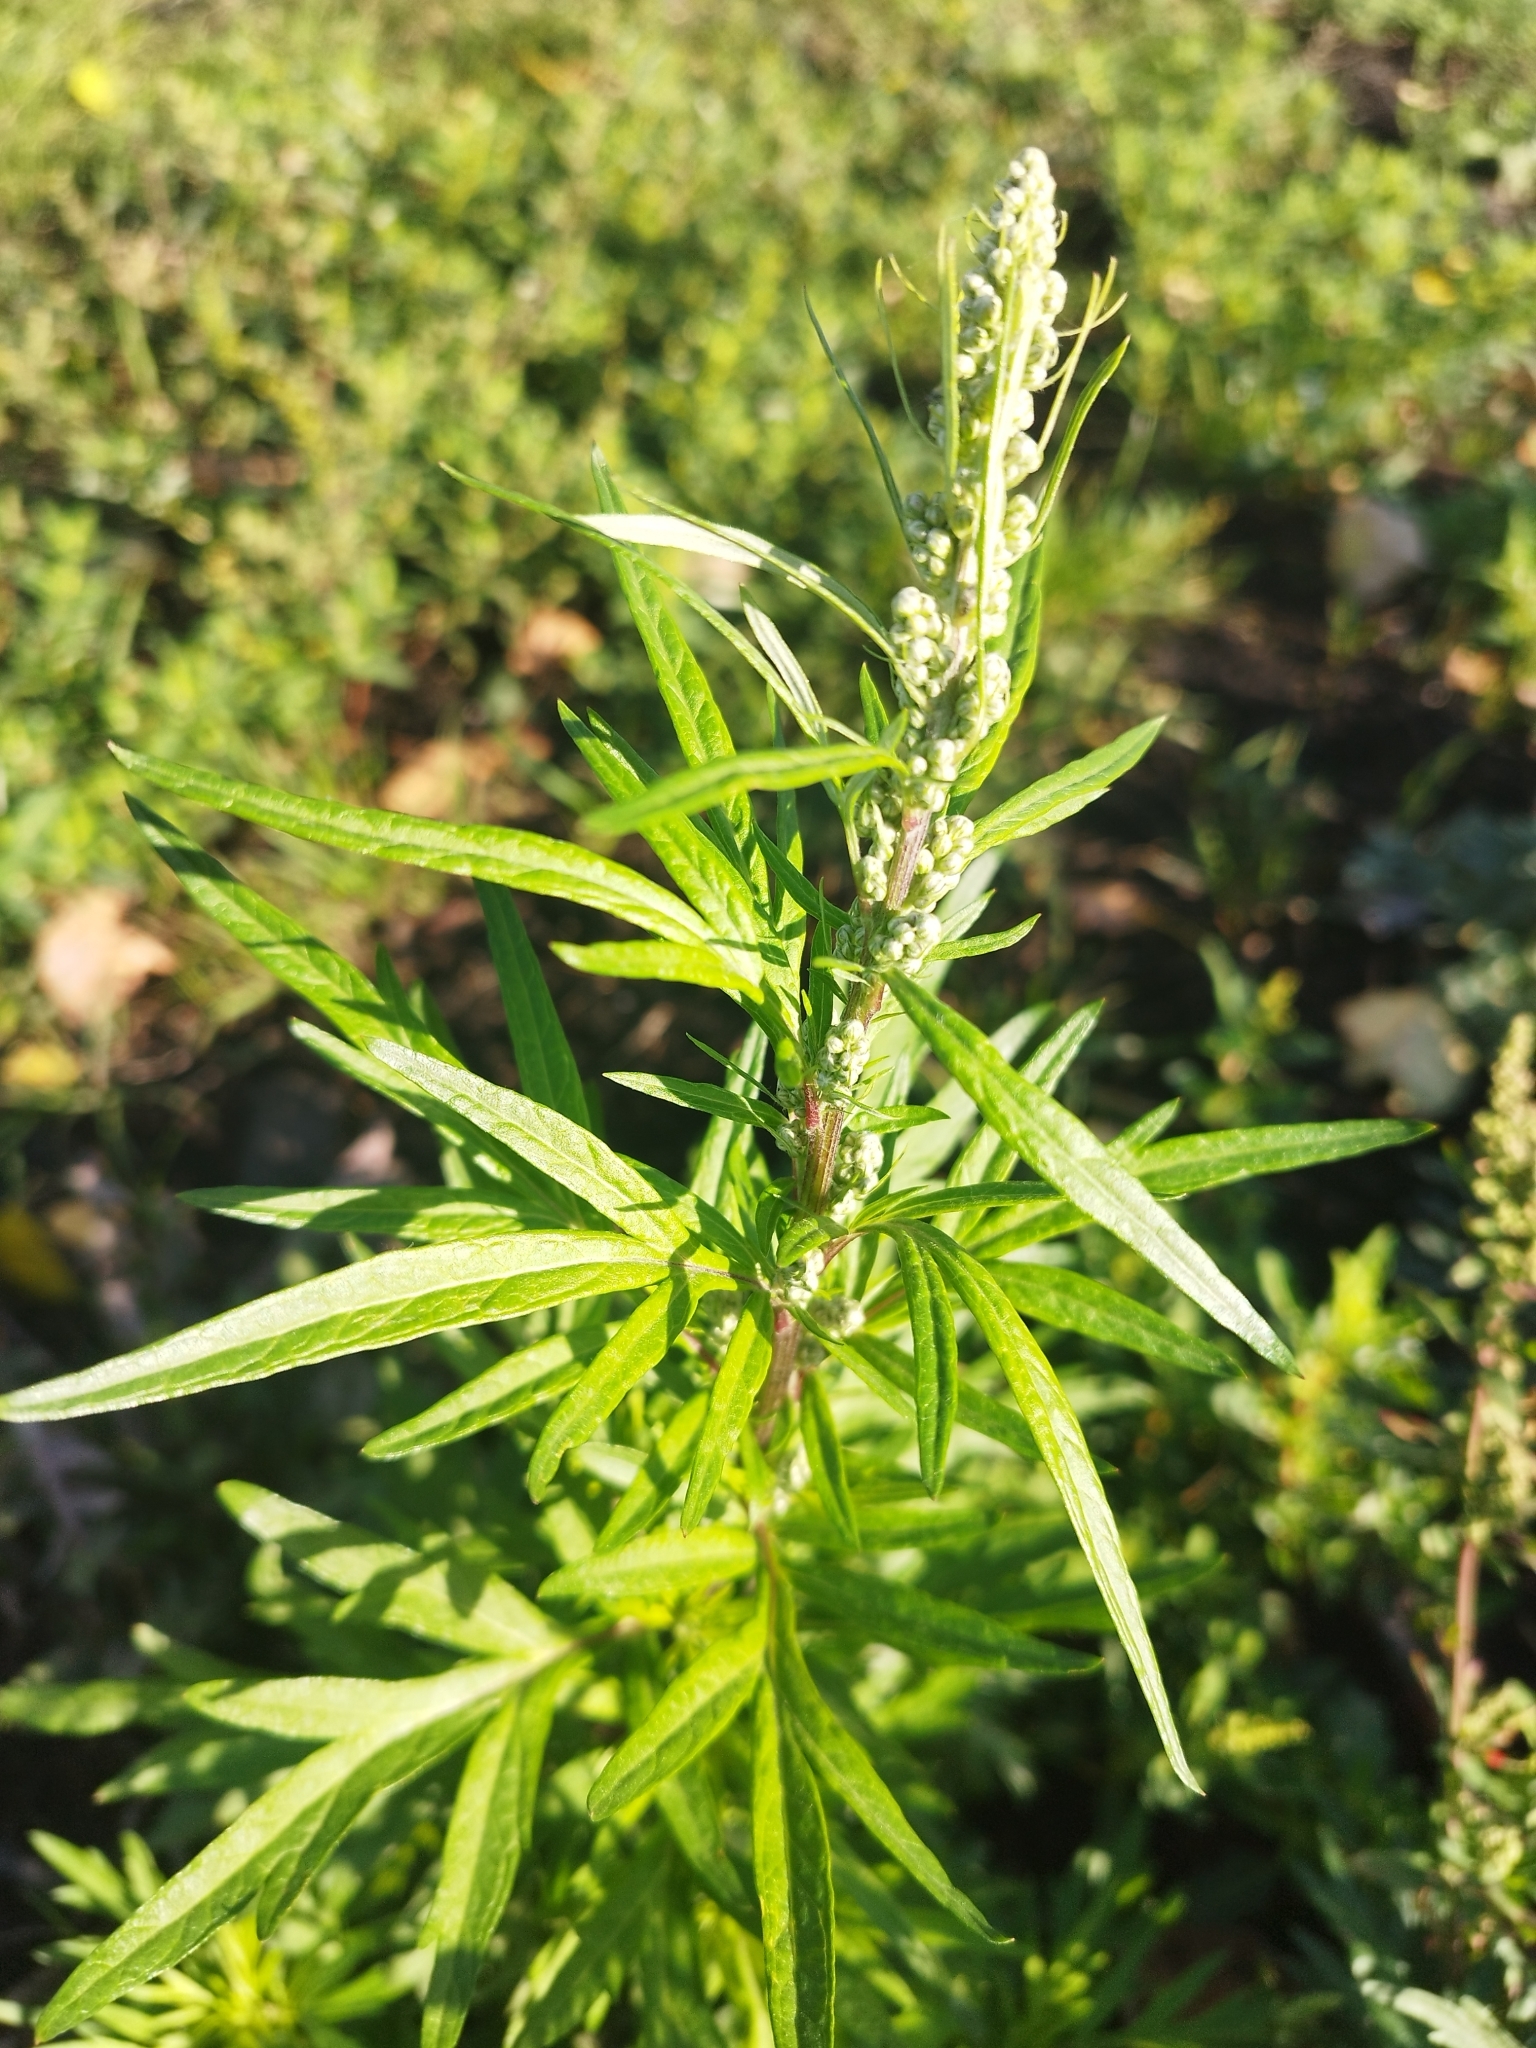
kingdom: Plantae
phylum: Tracheophyta
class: Magnoliopsida
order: Asterales
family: Asteraceae
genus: Artemisia
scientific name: Artemisia vulgaris
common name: Mugwort
